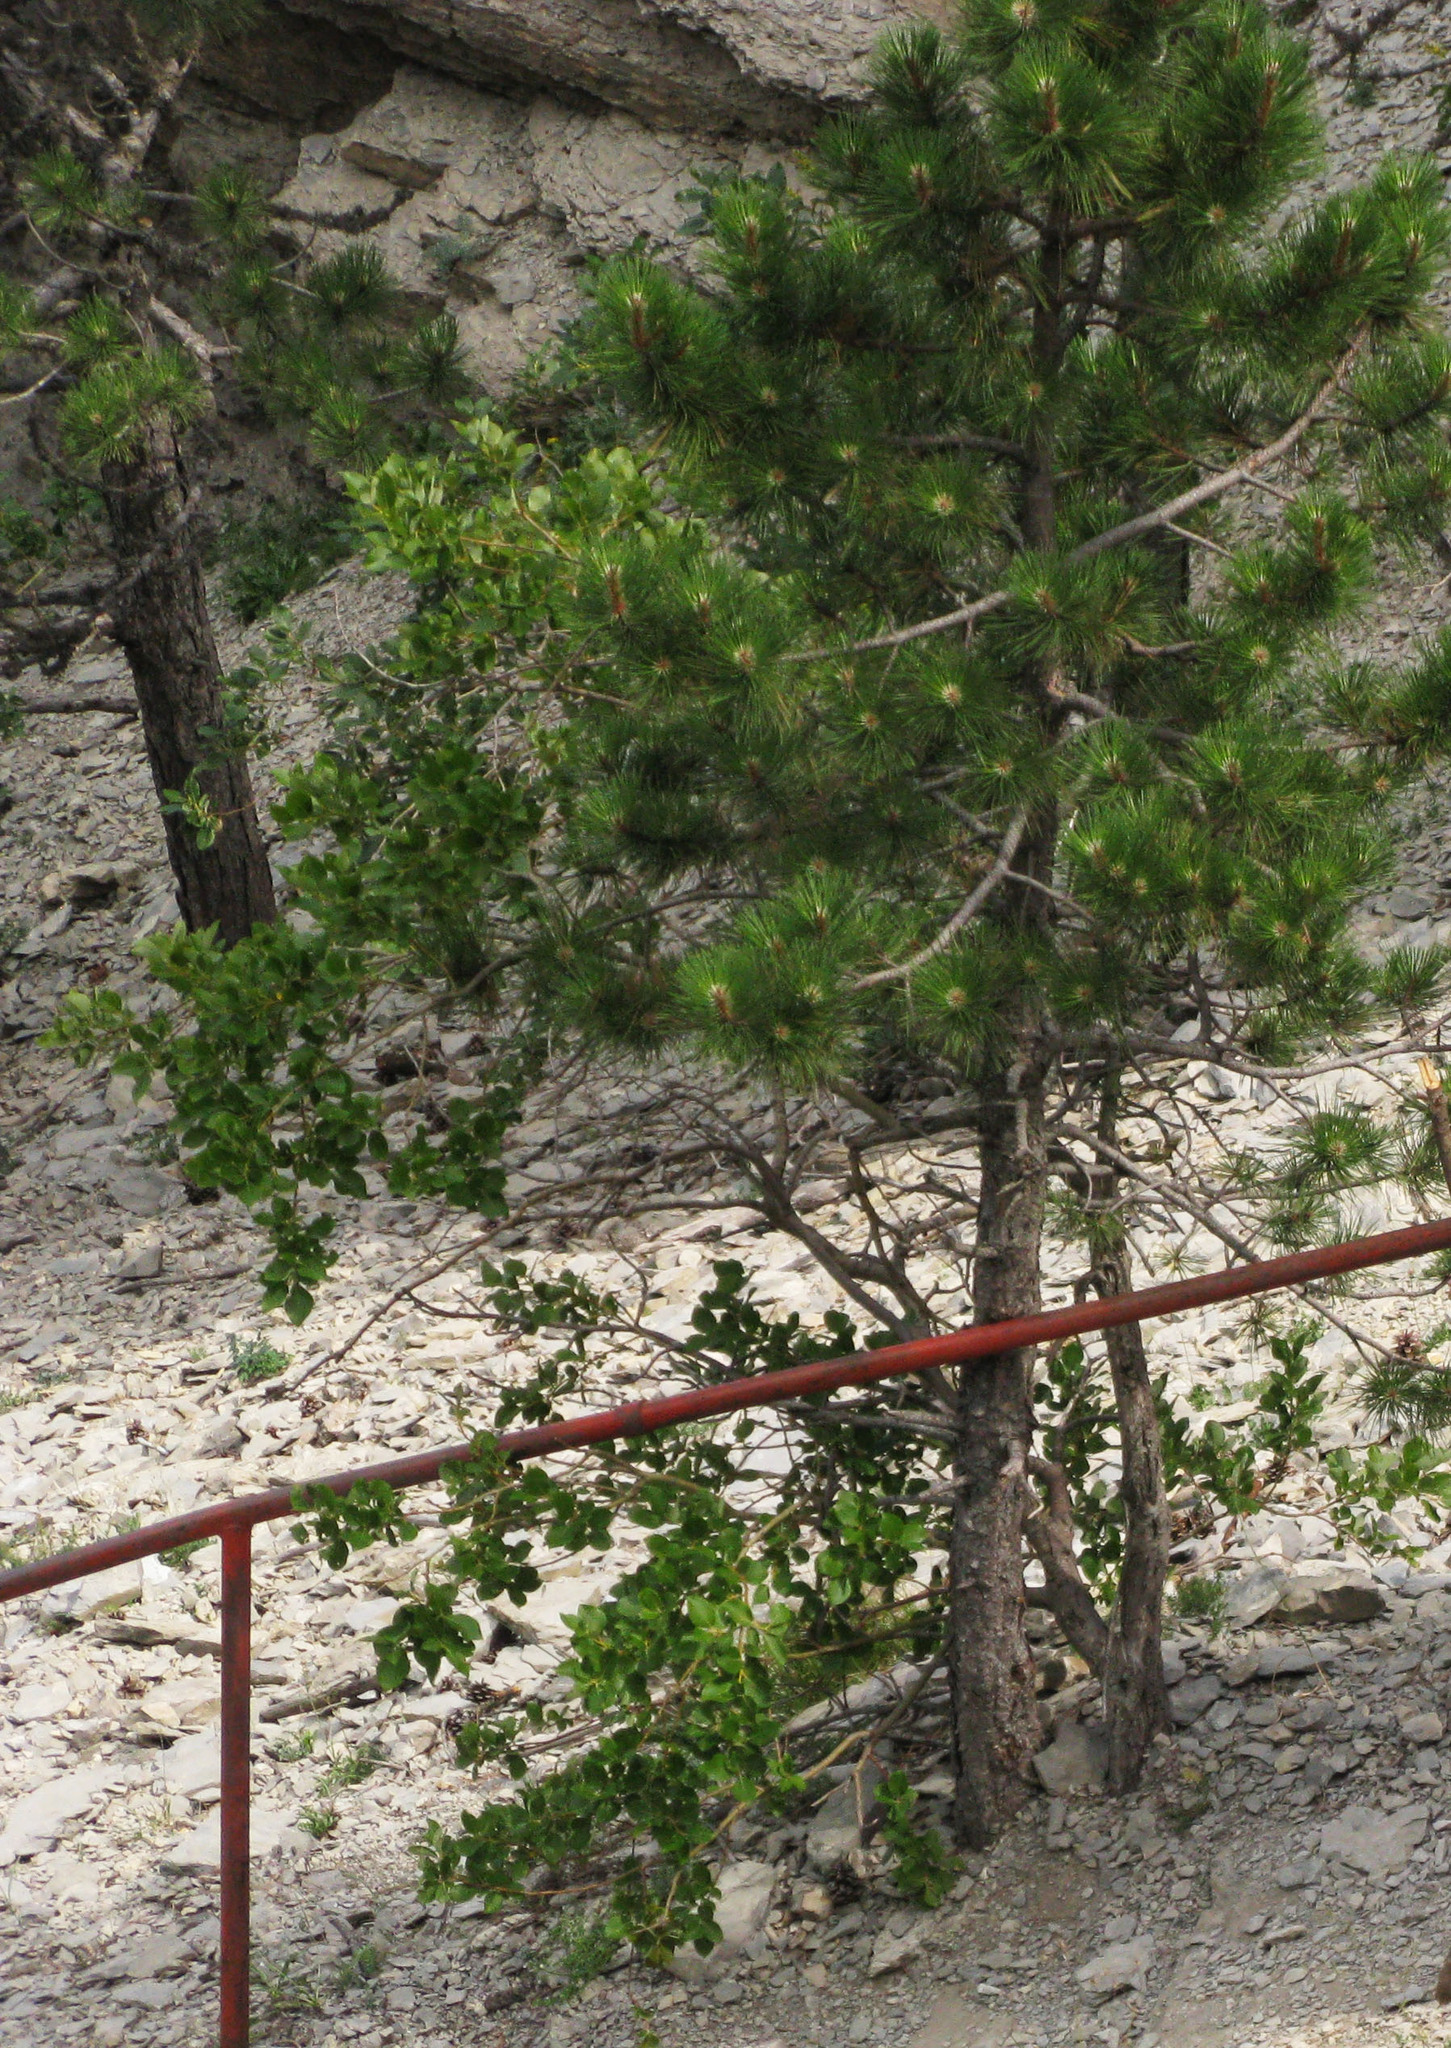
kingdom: Plantae
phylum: Tracheophyta
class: Pinopsida
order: Pinales
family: Pinaceae
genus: Pinus
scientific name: Pinus nigra
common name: Austrian pine
